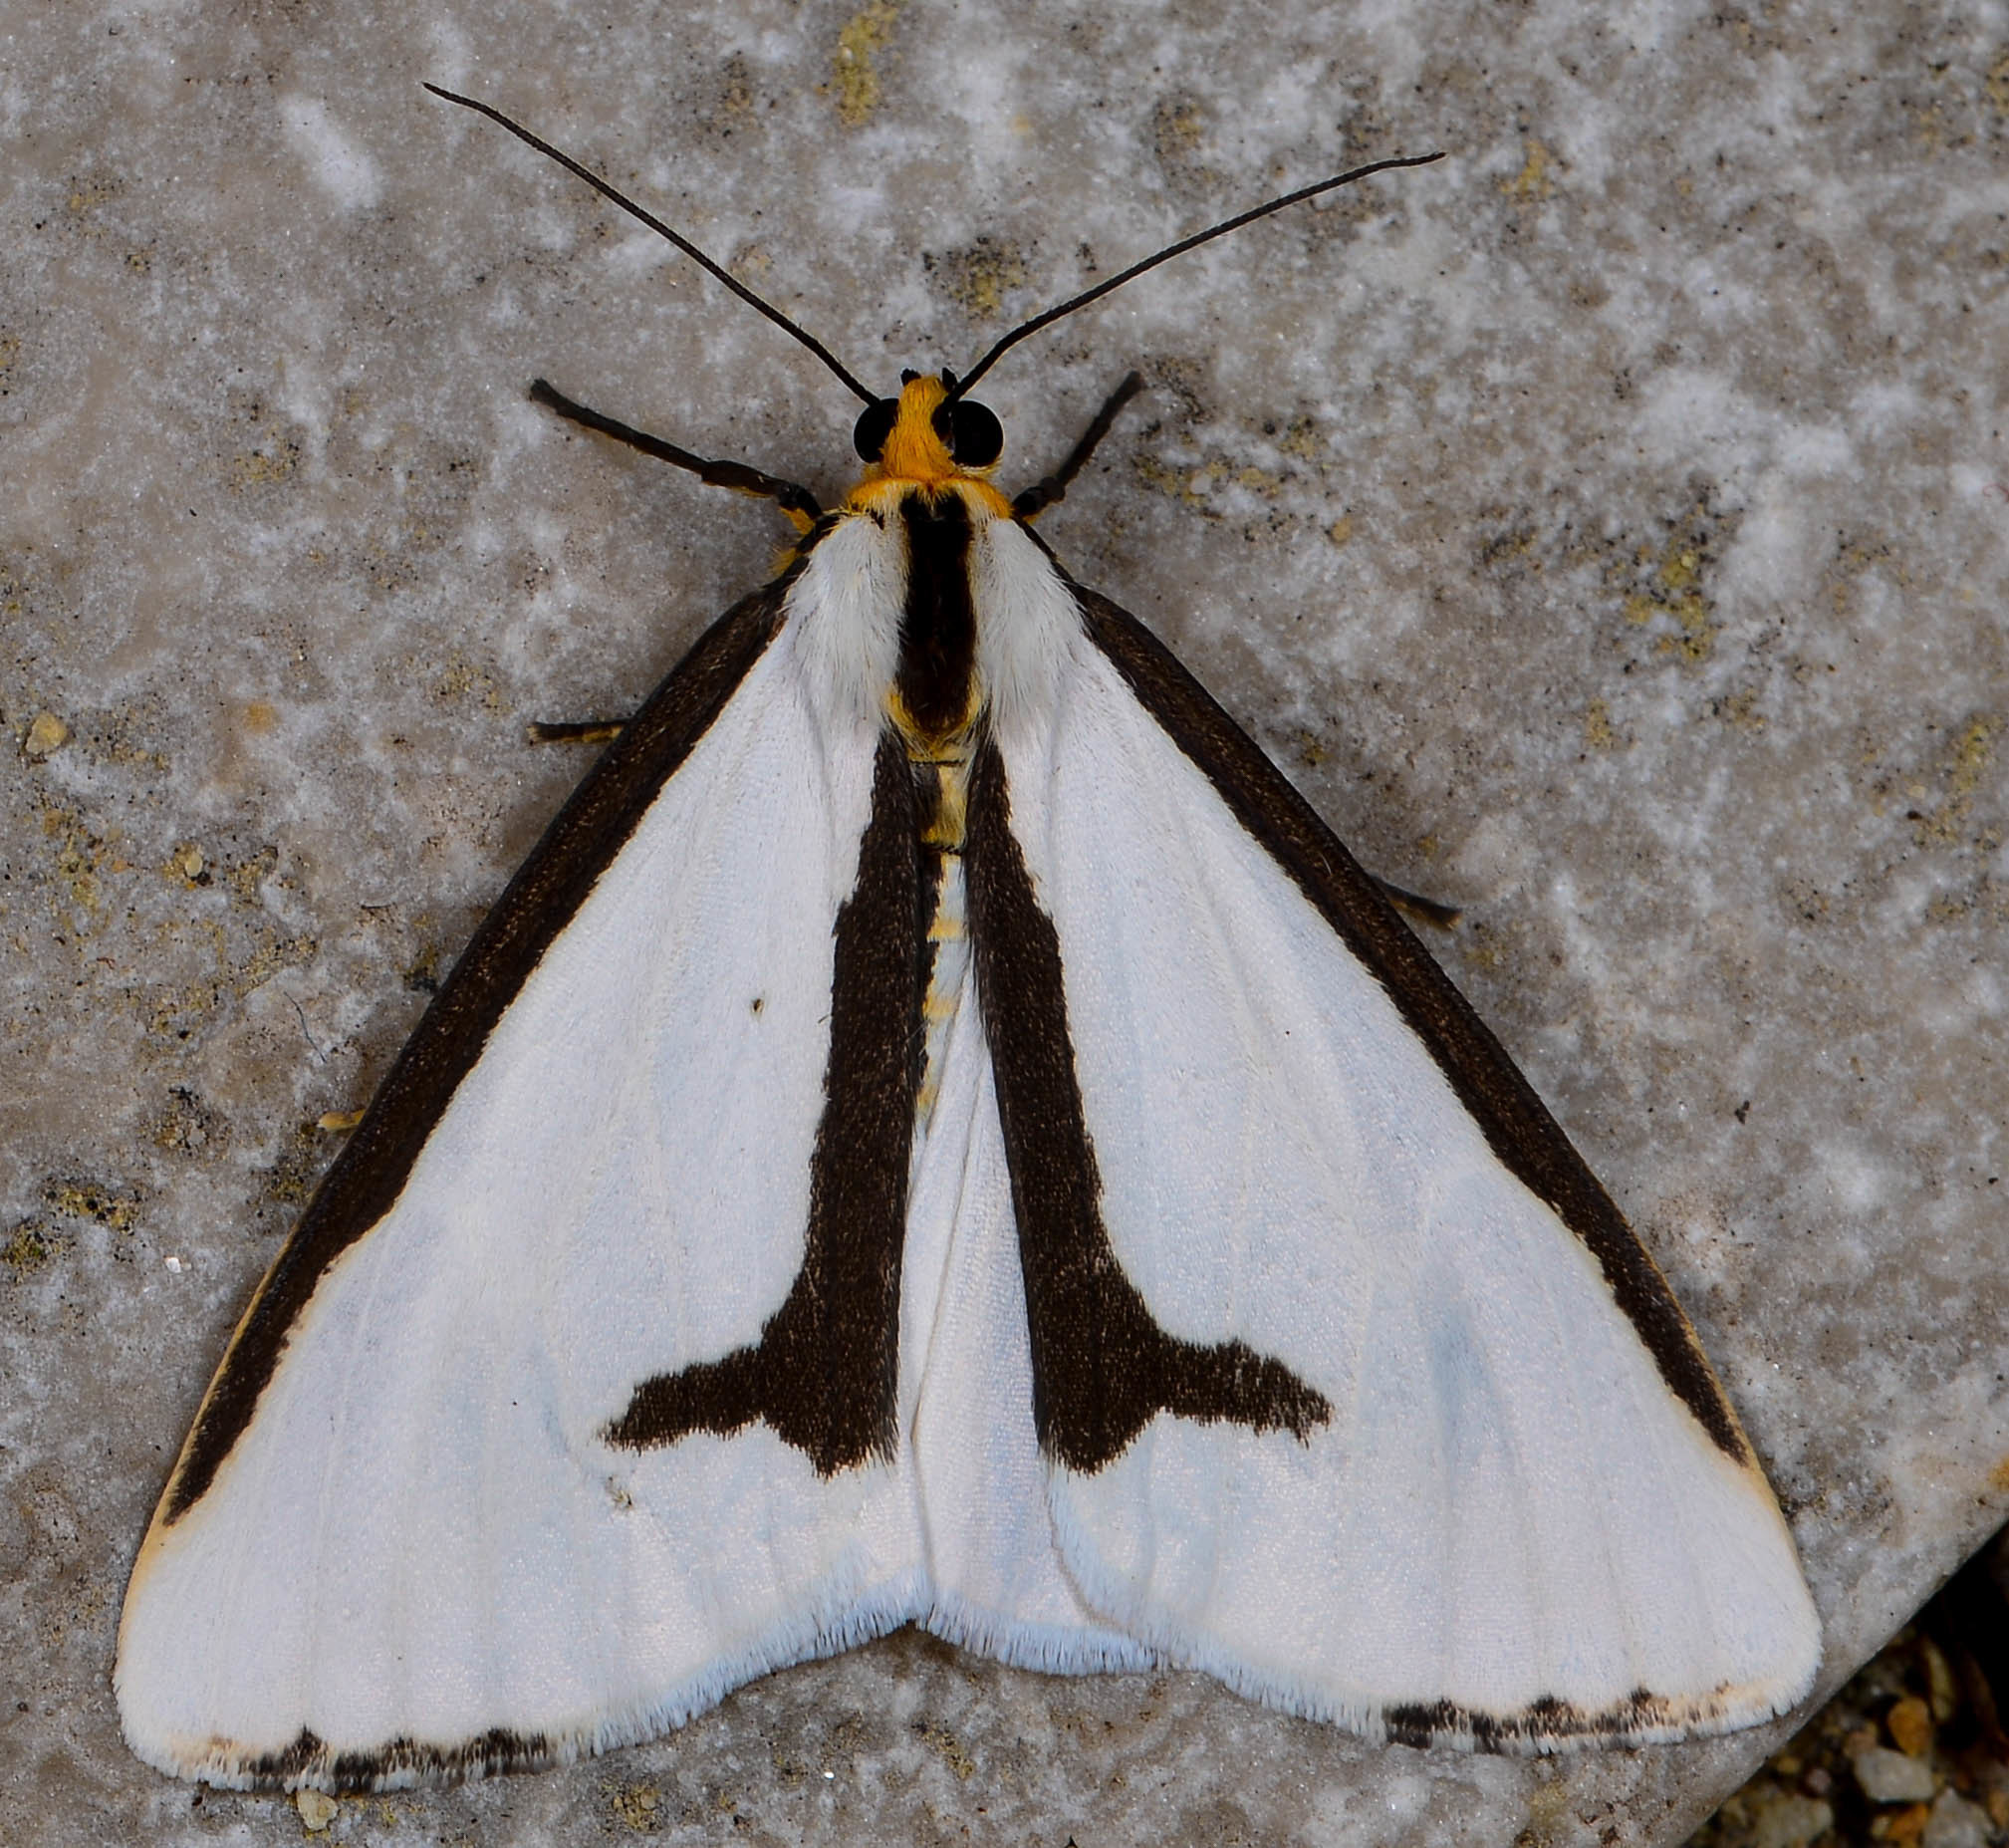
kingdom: Animalia
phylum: Arthropoda
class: Insecta
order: Lepidoptera
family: Erebidae
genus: Haploa
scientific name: Haploa lecontei
